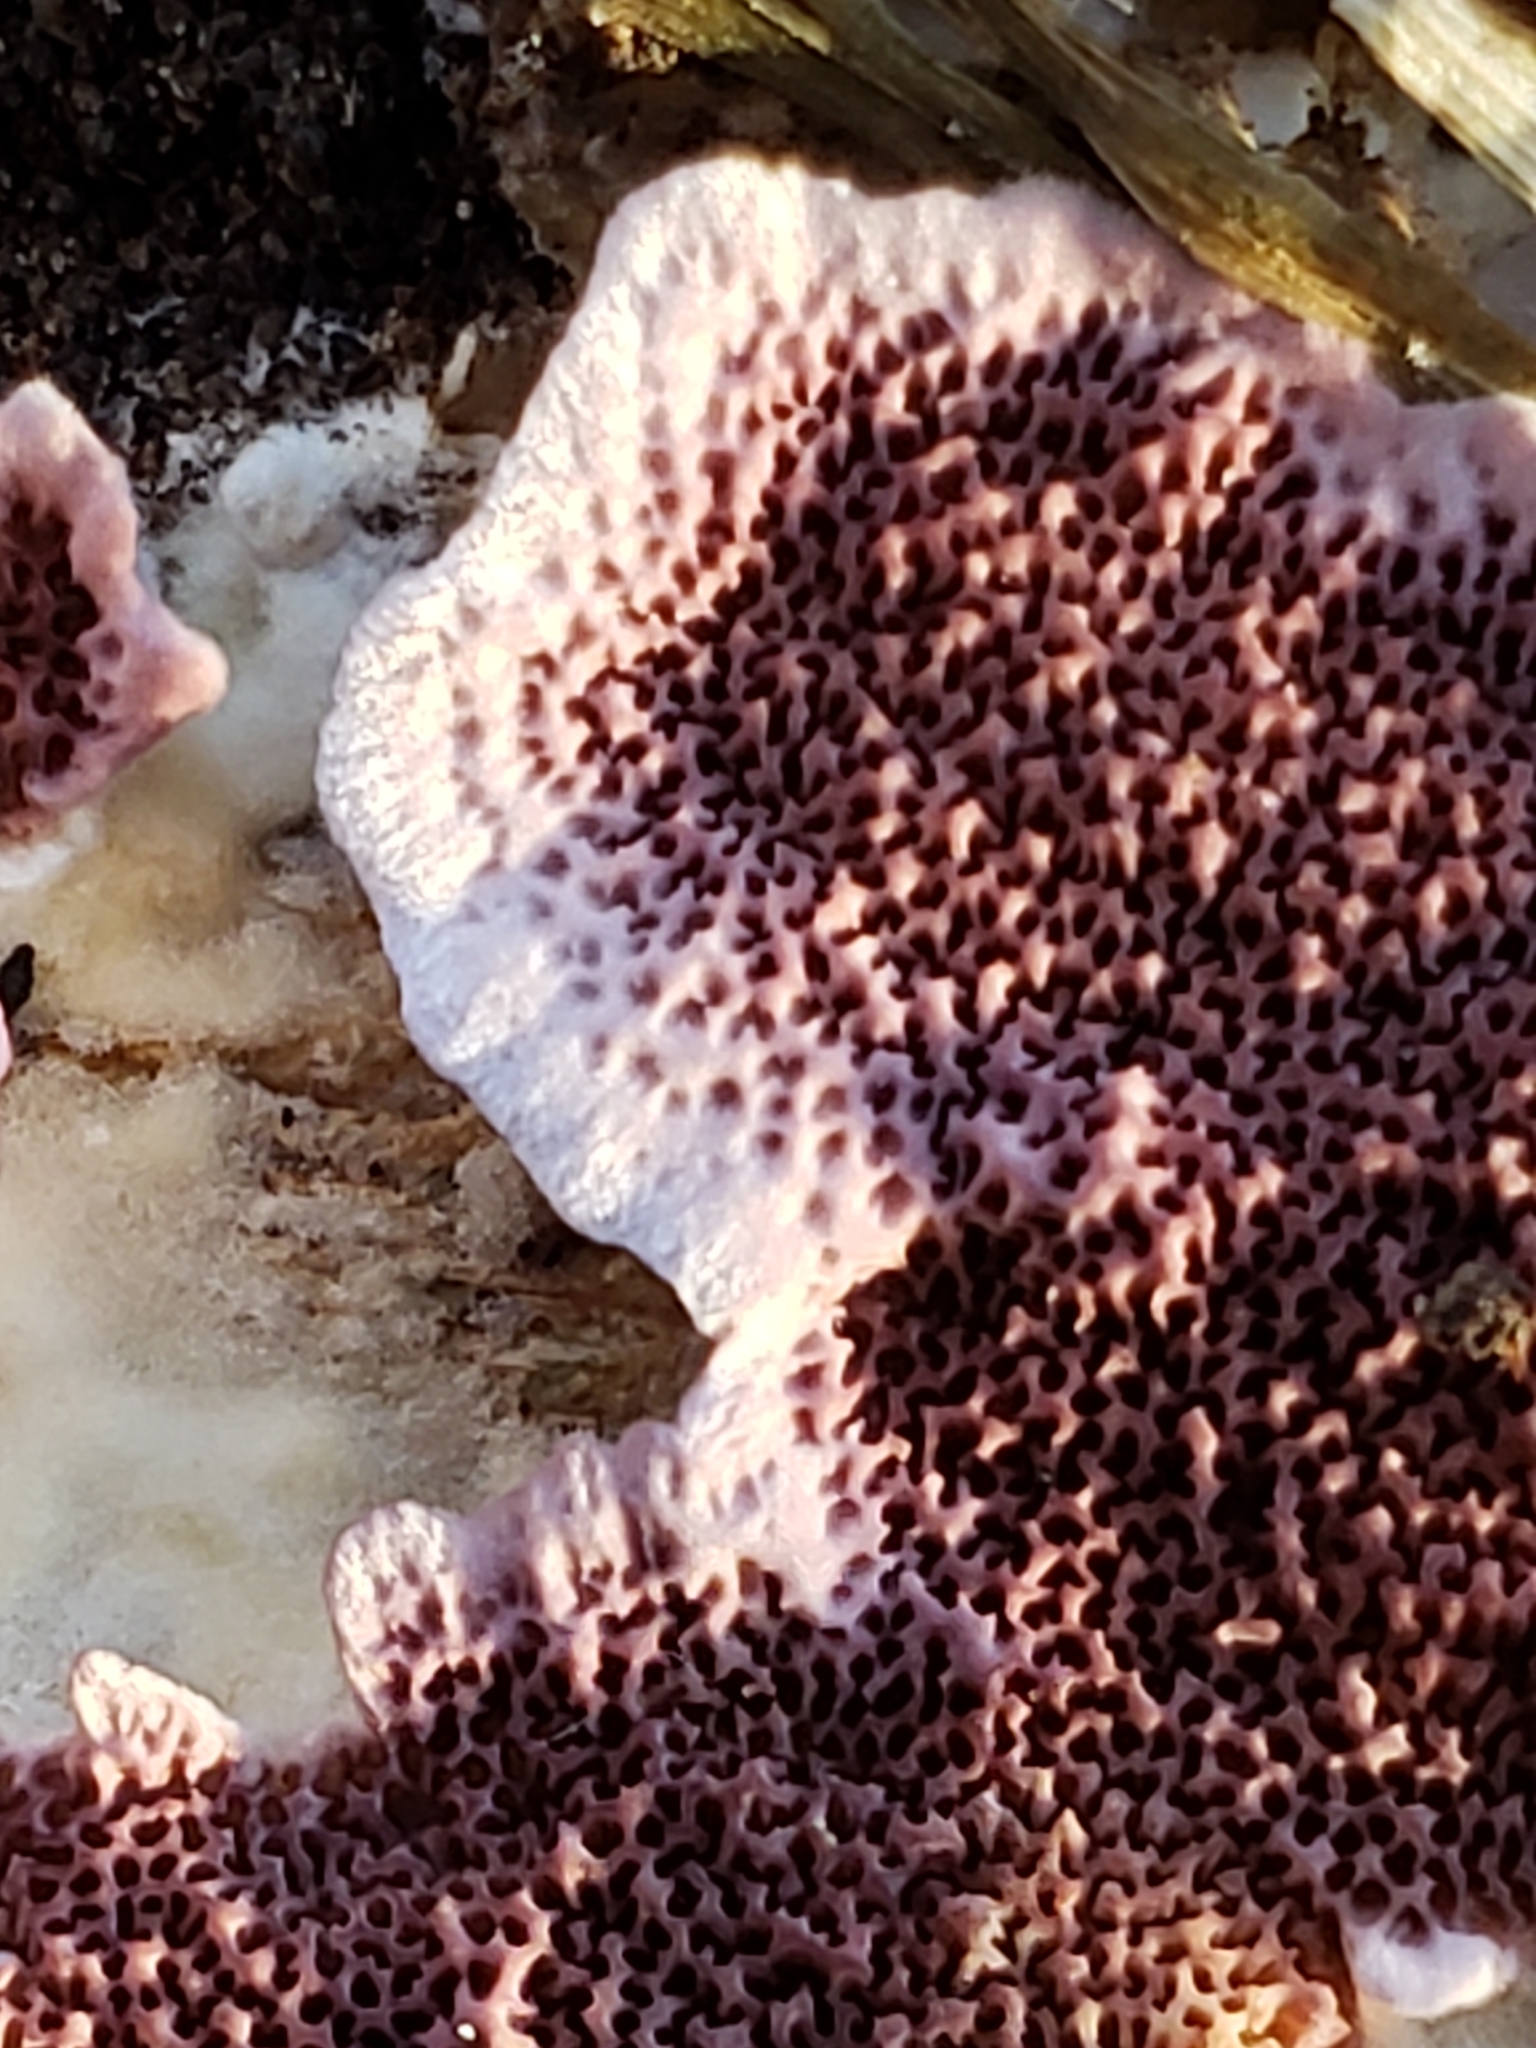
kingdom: Fungi
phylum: Basidiomycota
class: Agaricomycetes
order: Hymenochaetales
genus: Trichaptum
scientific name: Trichaptum biforme
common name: Violet-toothed polypore
